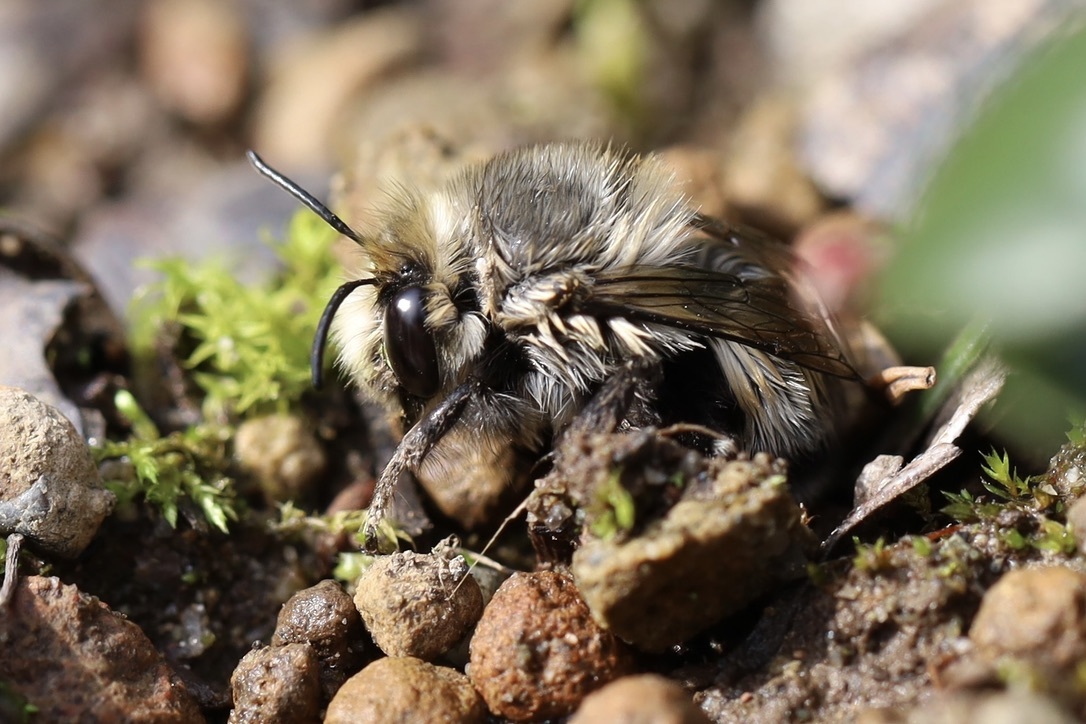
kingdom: Animalia
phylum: Arthropoda
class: Insecta
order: Hymenoptera
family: Apidae
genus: Anthophora
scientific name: Anthophora pacifica
